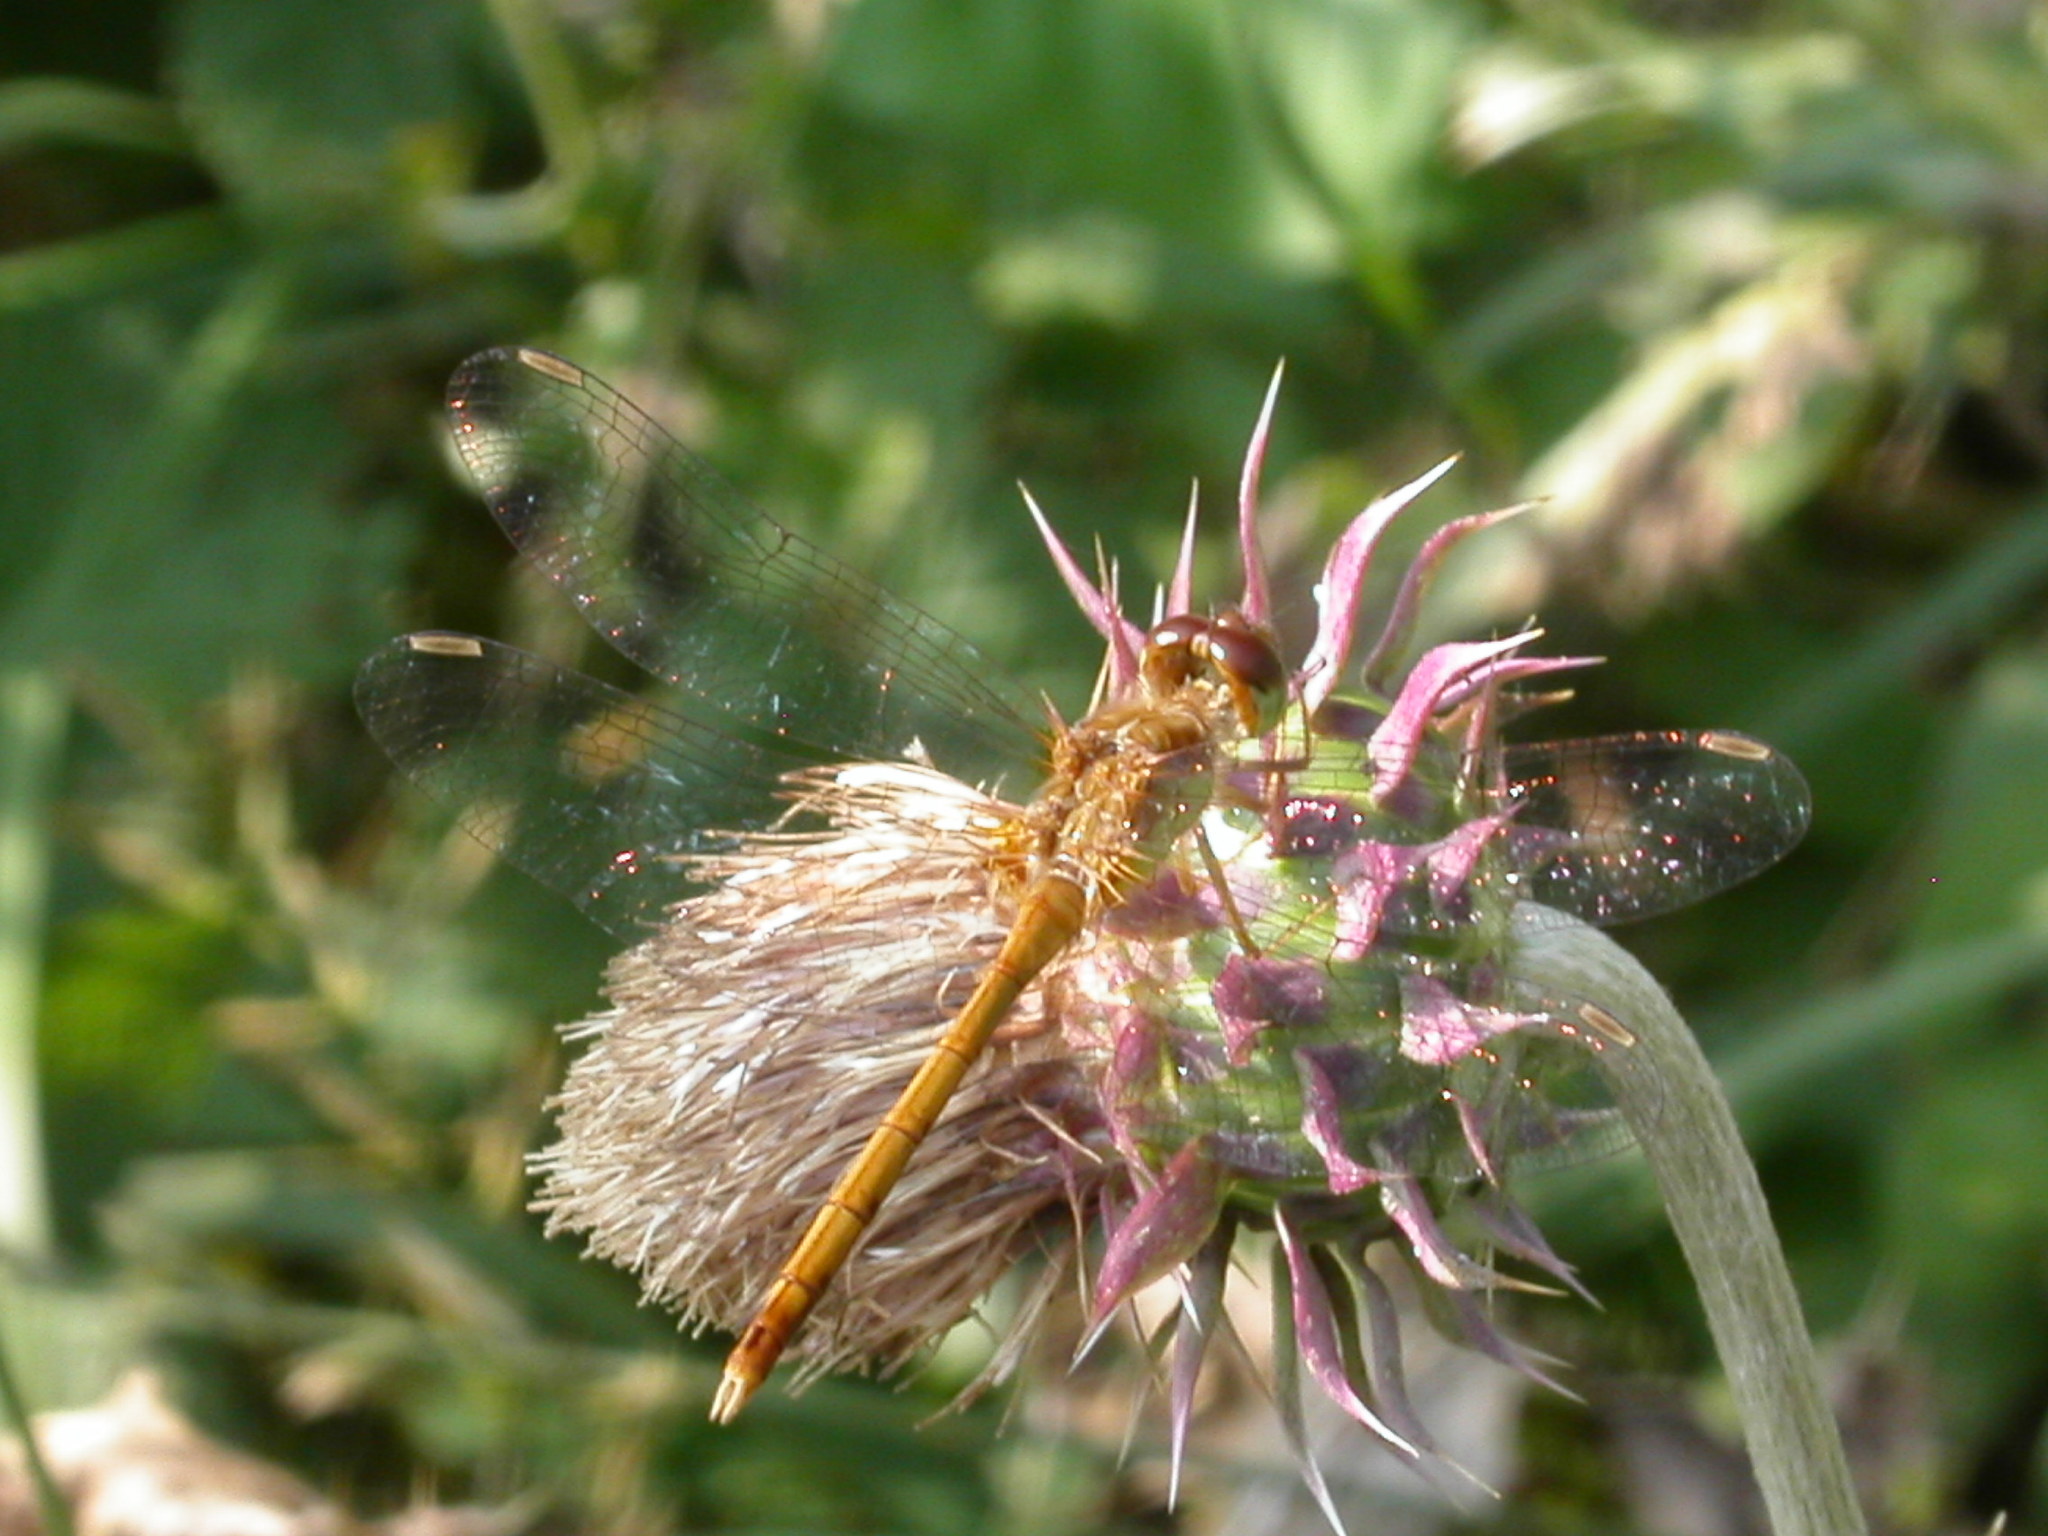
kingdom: Animalia
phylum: Arthropoda
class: Insecta
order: Odonata
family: Libellulidae
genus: Sympetrum
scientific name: Sympetrum vicinum
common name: Autumn meadowhawk
